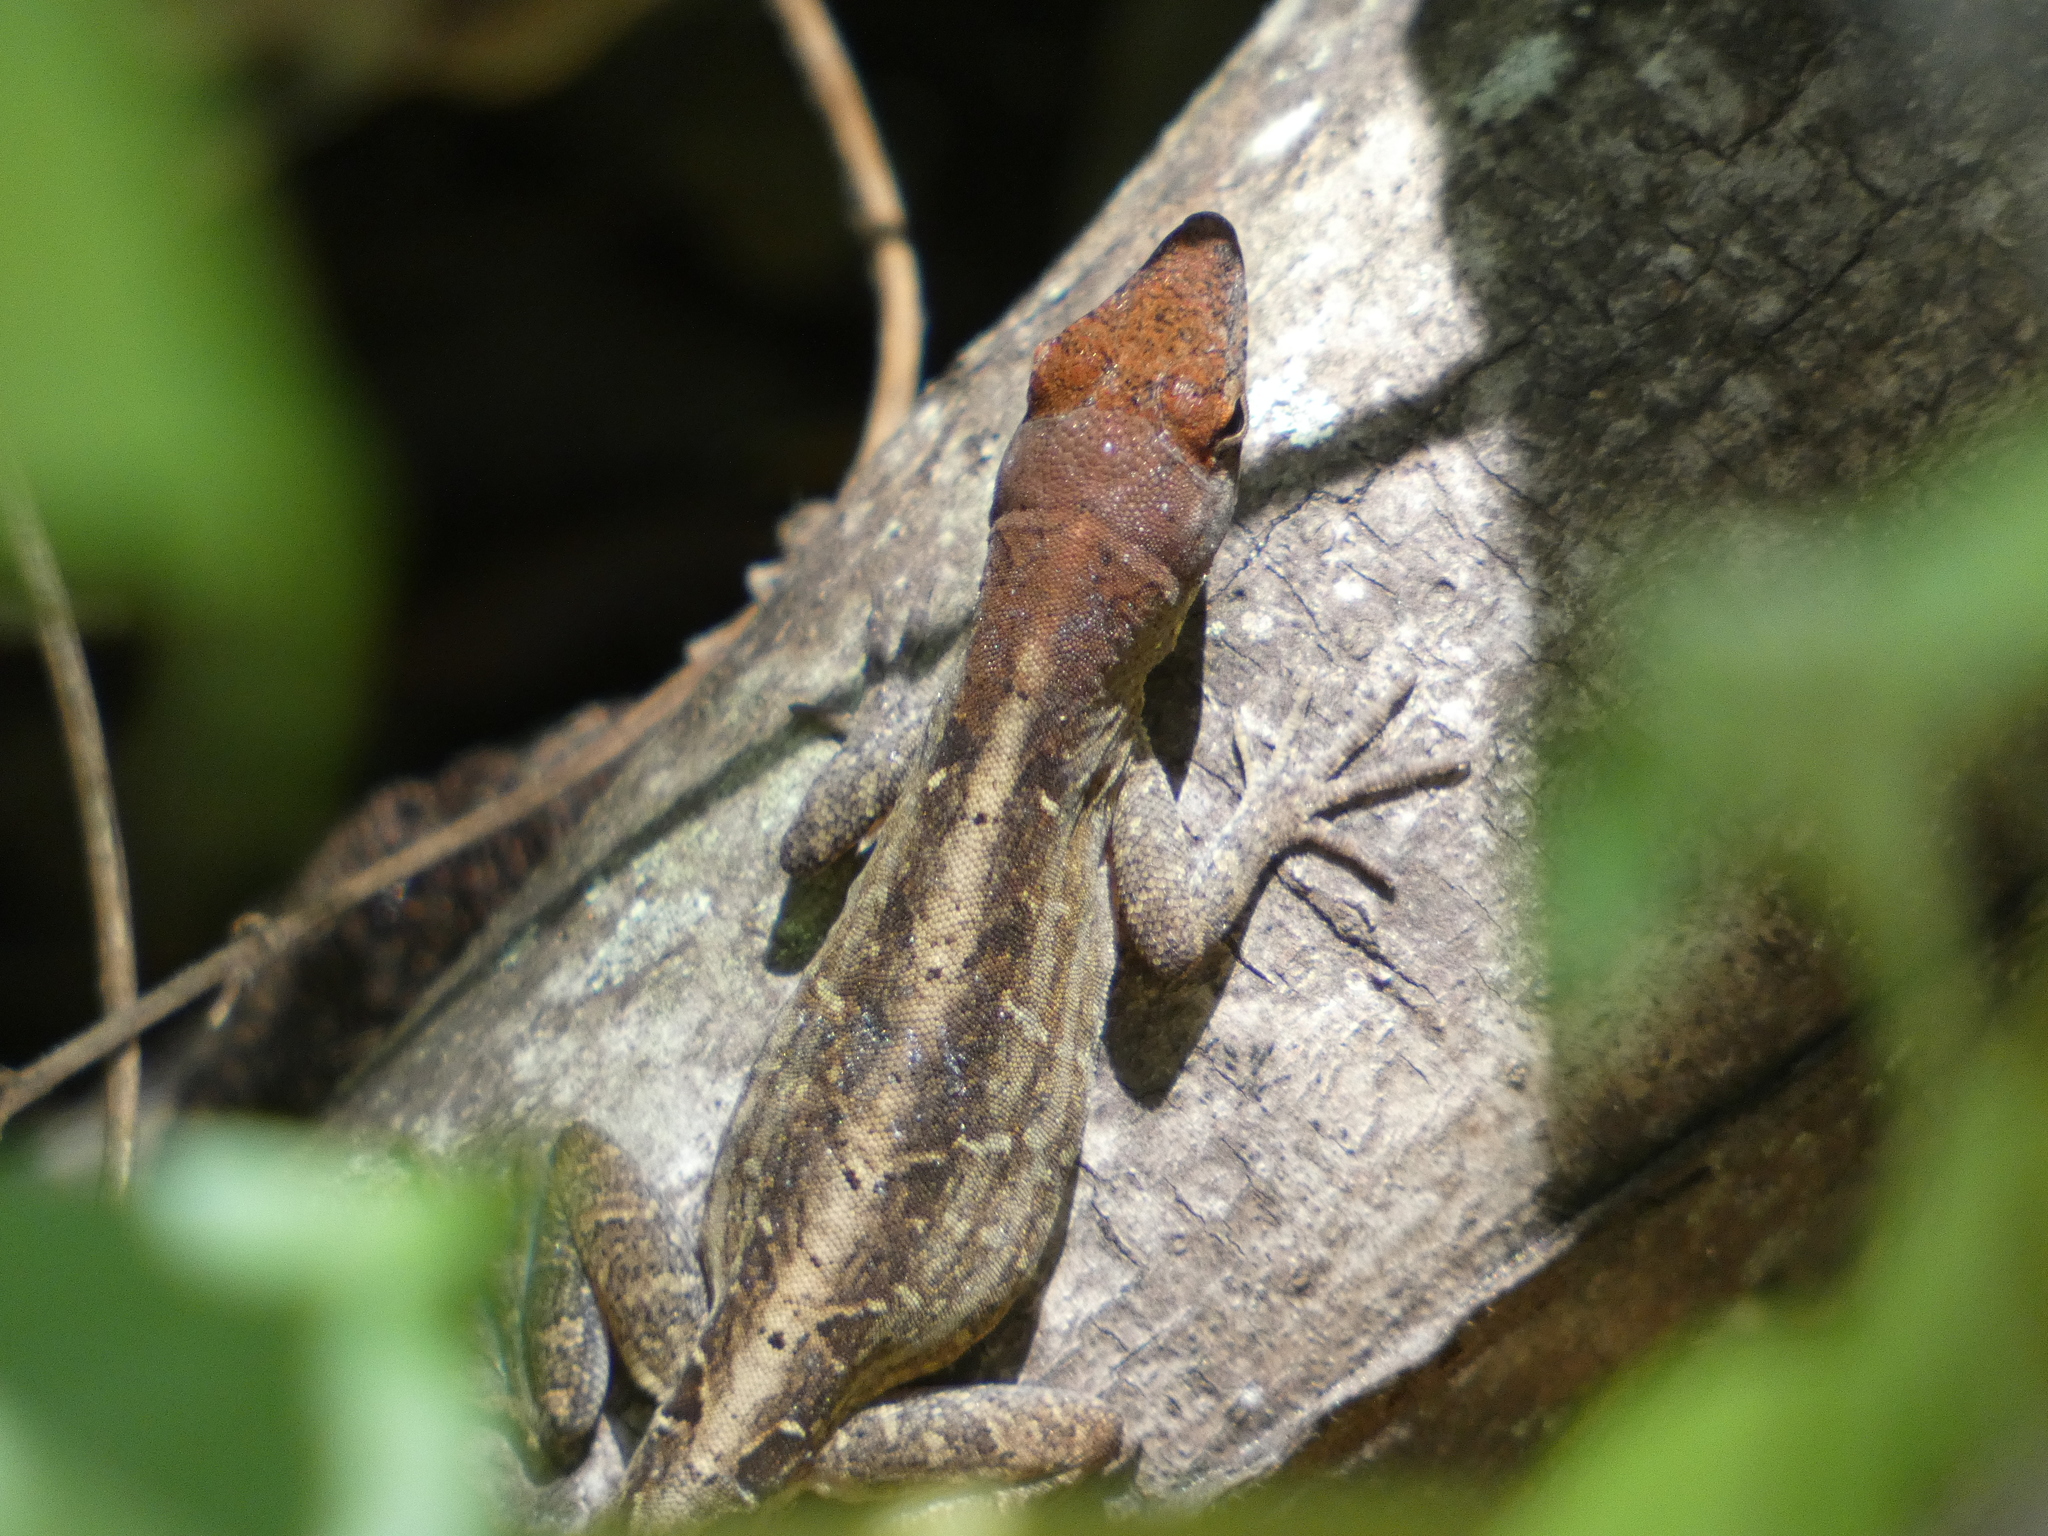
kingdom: Animalia
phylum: Chordata
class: Squamata
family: Dactyloidae
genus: Anolis
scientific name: Anolis sagrei
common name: Brown anole
